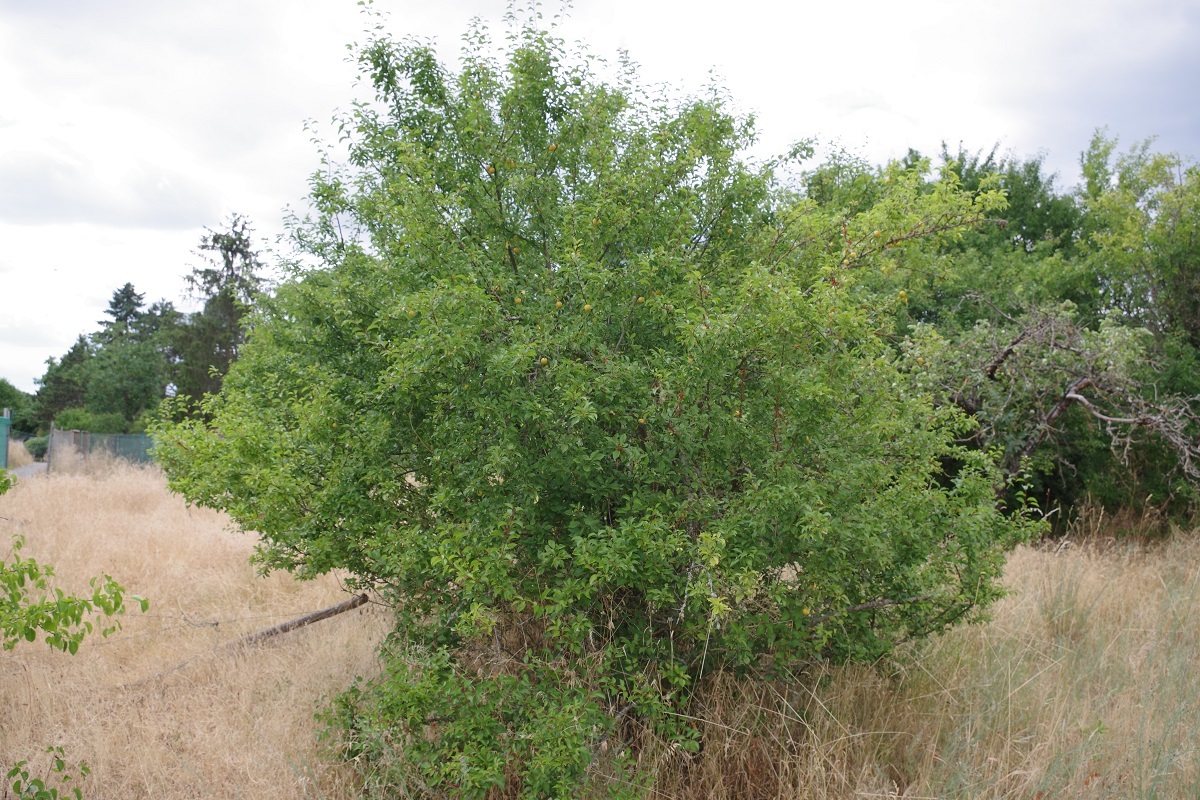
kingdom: Plantae
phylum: Tracheophyta
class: Magnoliopsida
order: Rosales
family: Rosaceae
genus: Prunus
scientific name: Prunus cerasifera
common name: Cherry plum
